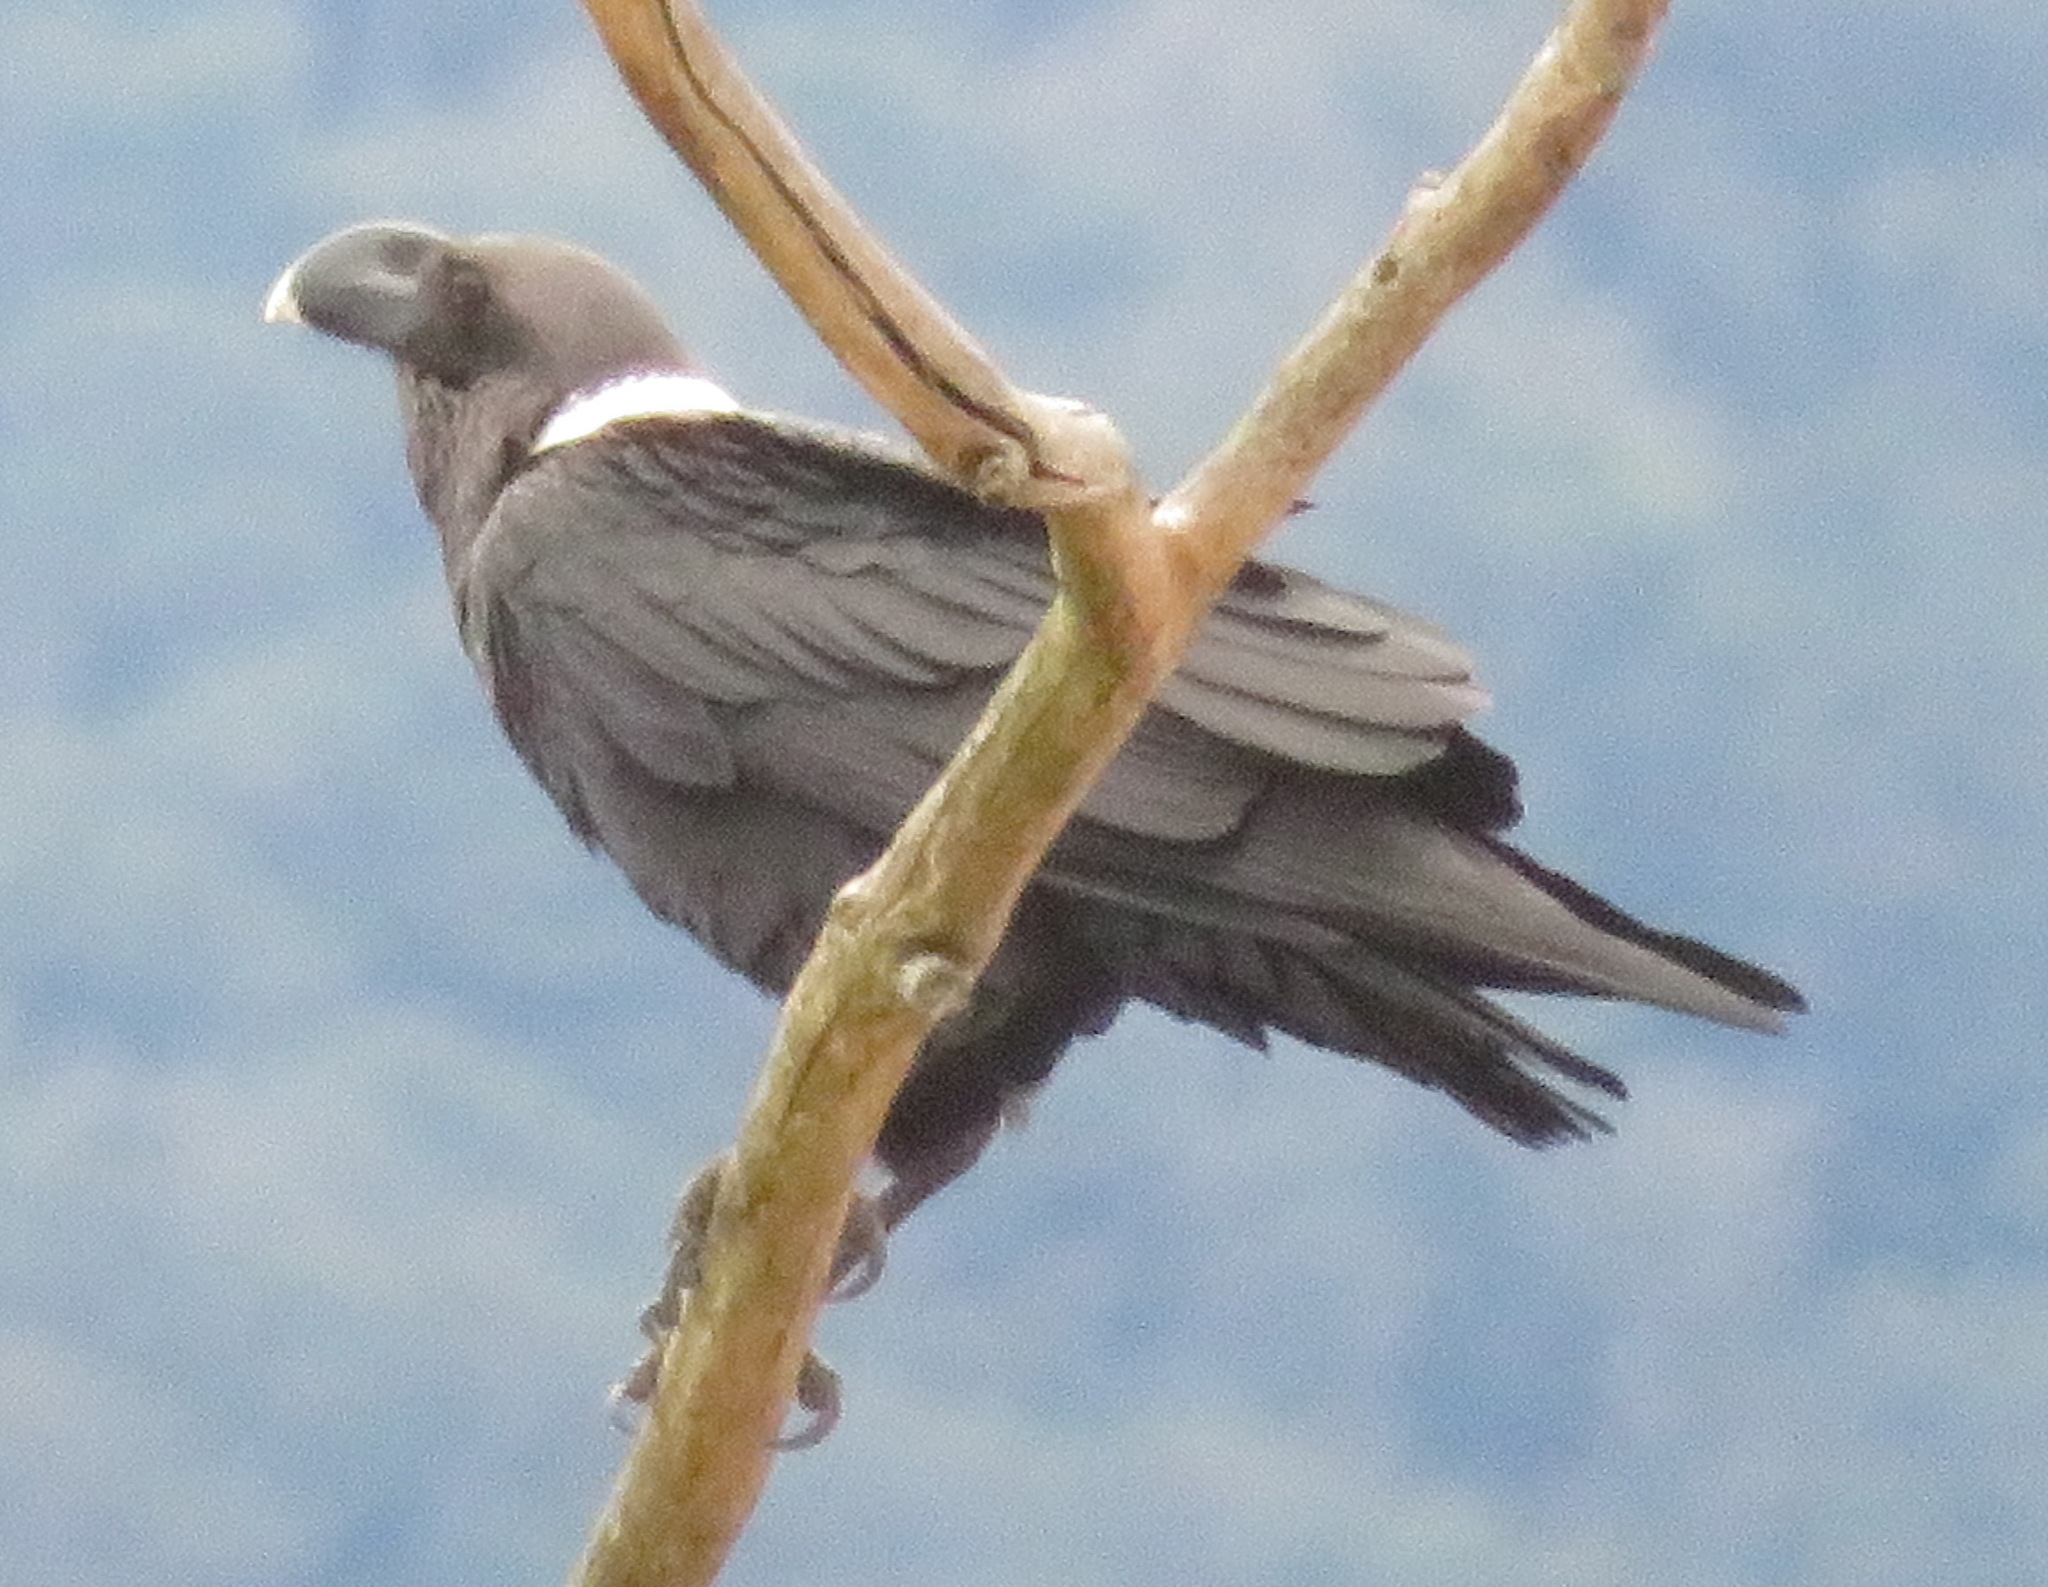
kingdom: Animalia
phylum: Chordata
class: Aves
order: Passeriformes
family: Corvidae
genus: Corvus
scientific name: Corvus albicollis
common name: White-necked raven
